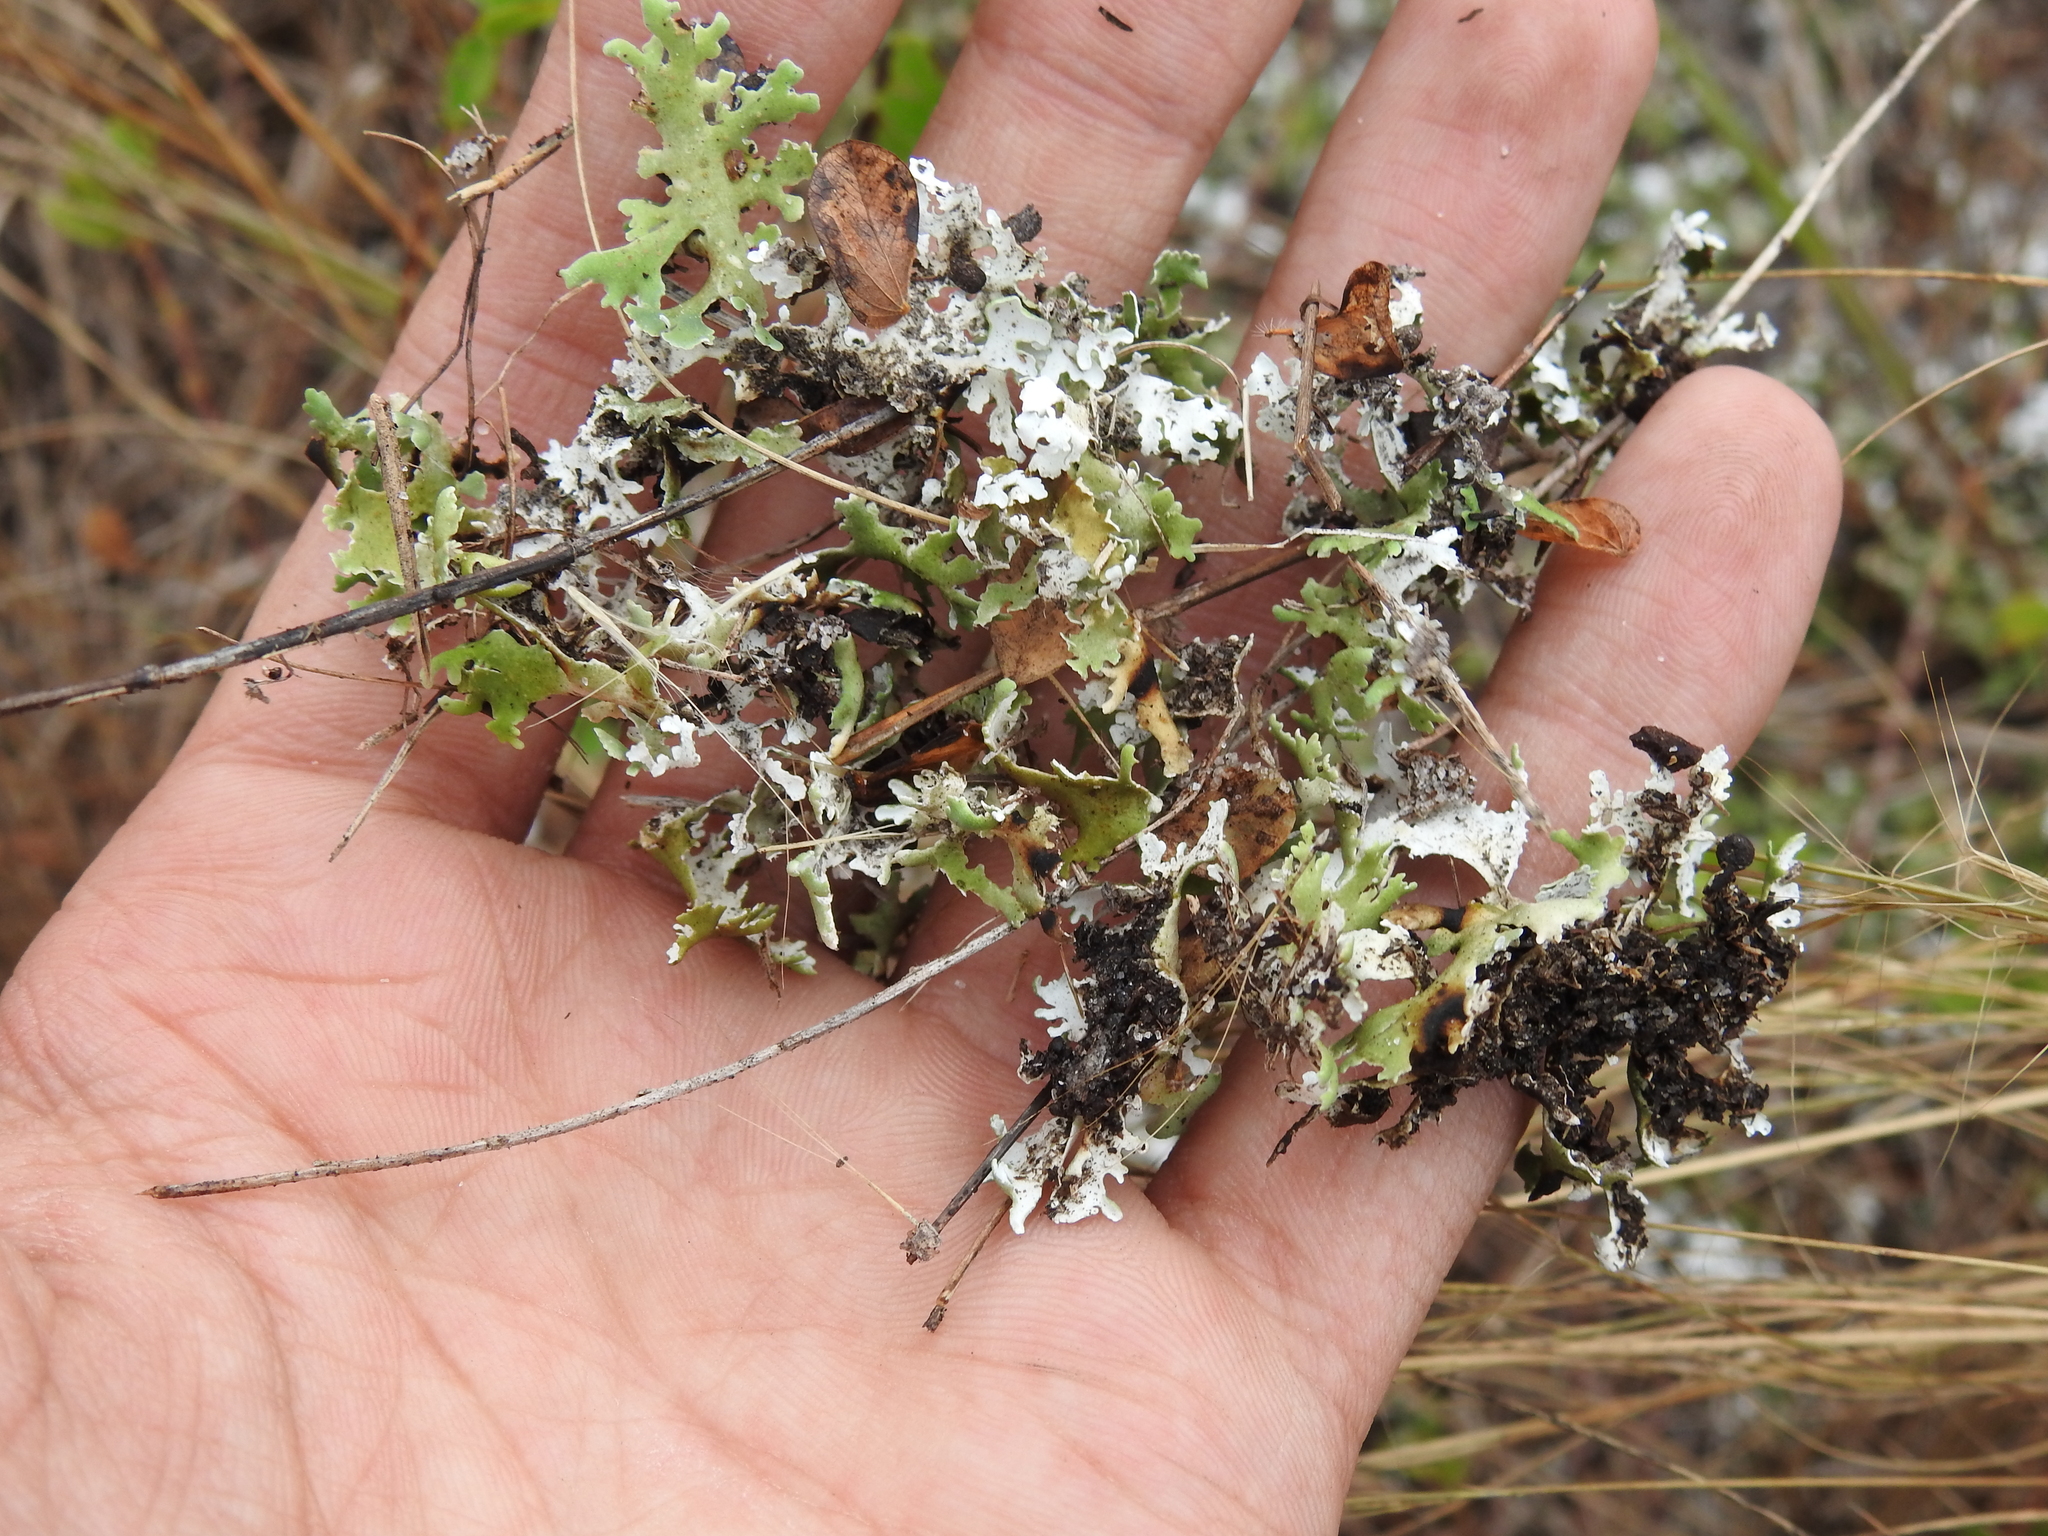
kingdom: Fungi
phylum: Ascomycota
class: Lecanoromycetes
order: Lecanorales
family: Cladoniaceae
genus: Cladonia
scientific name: Cladonia prostrata
